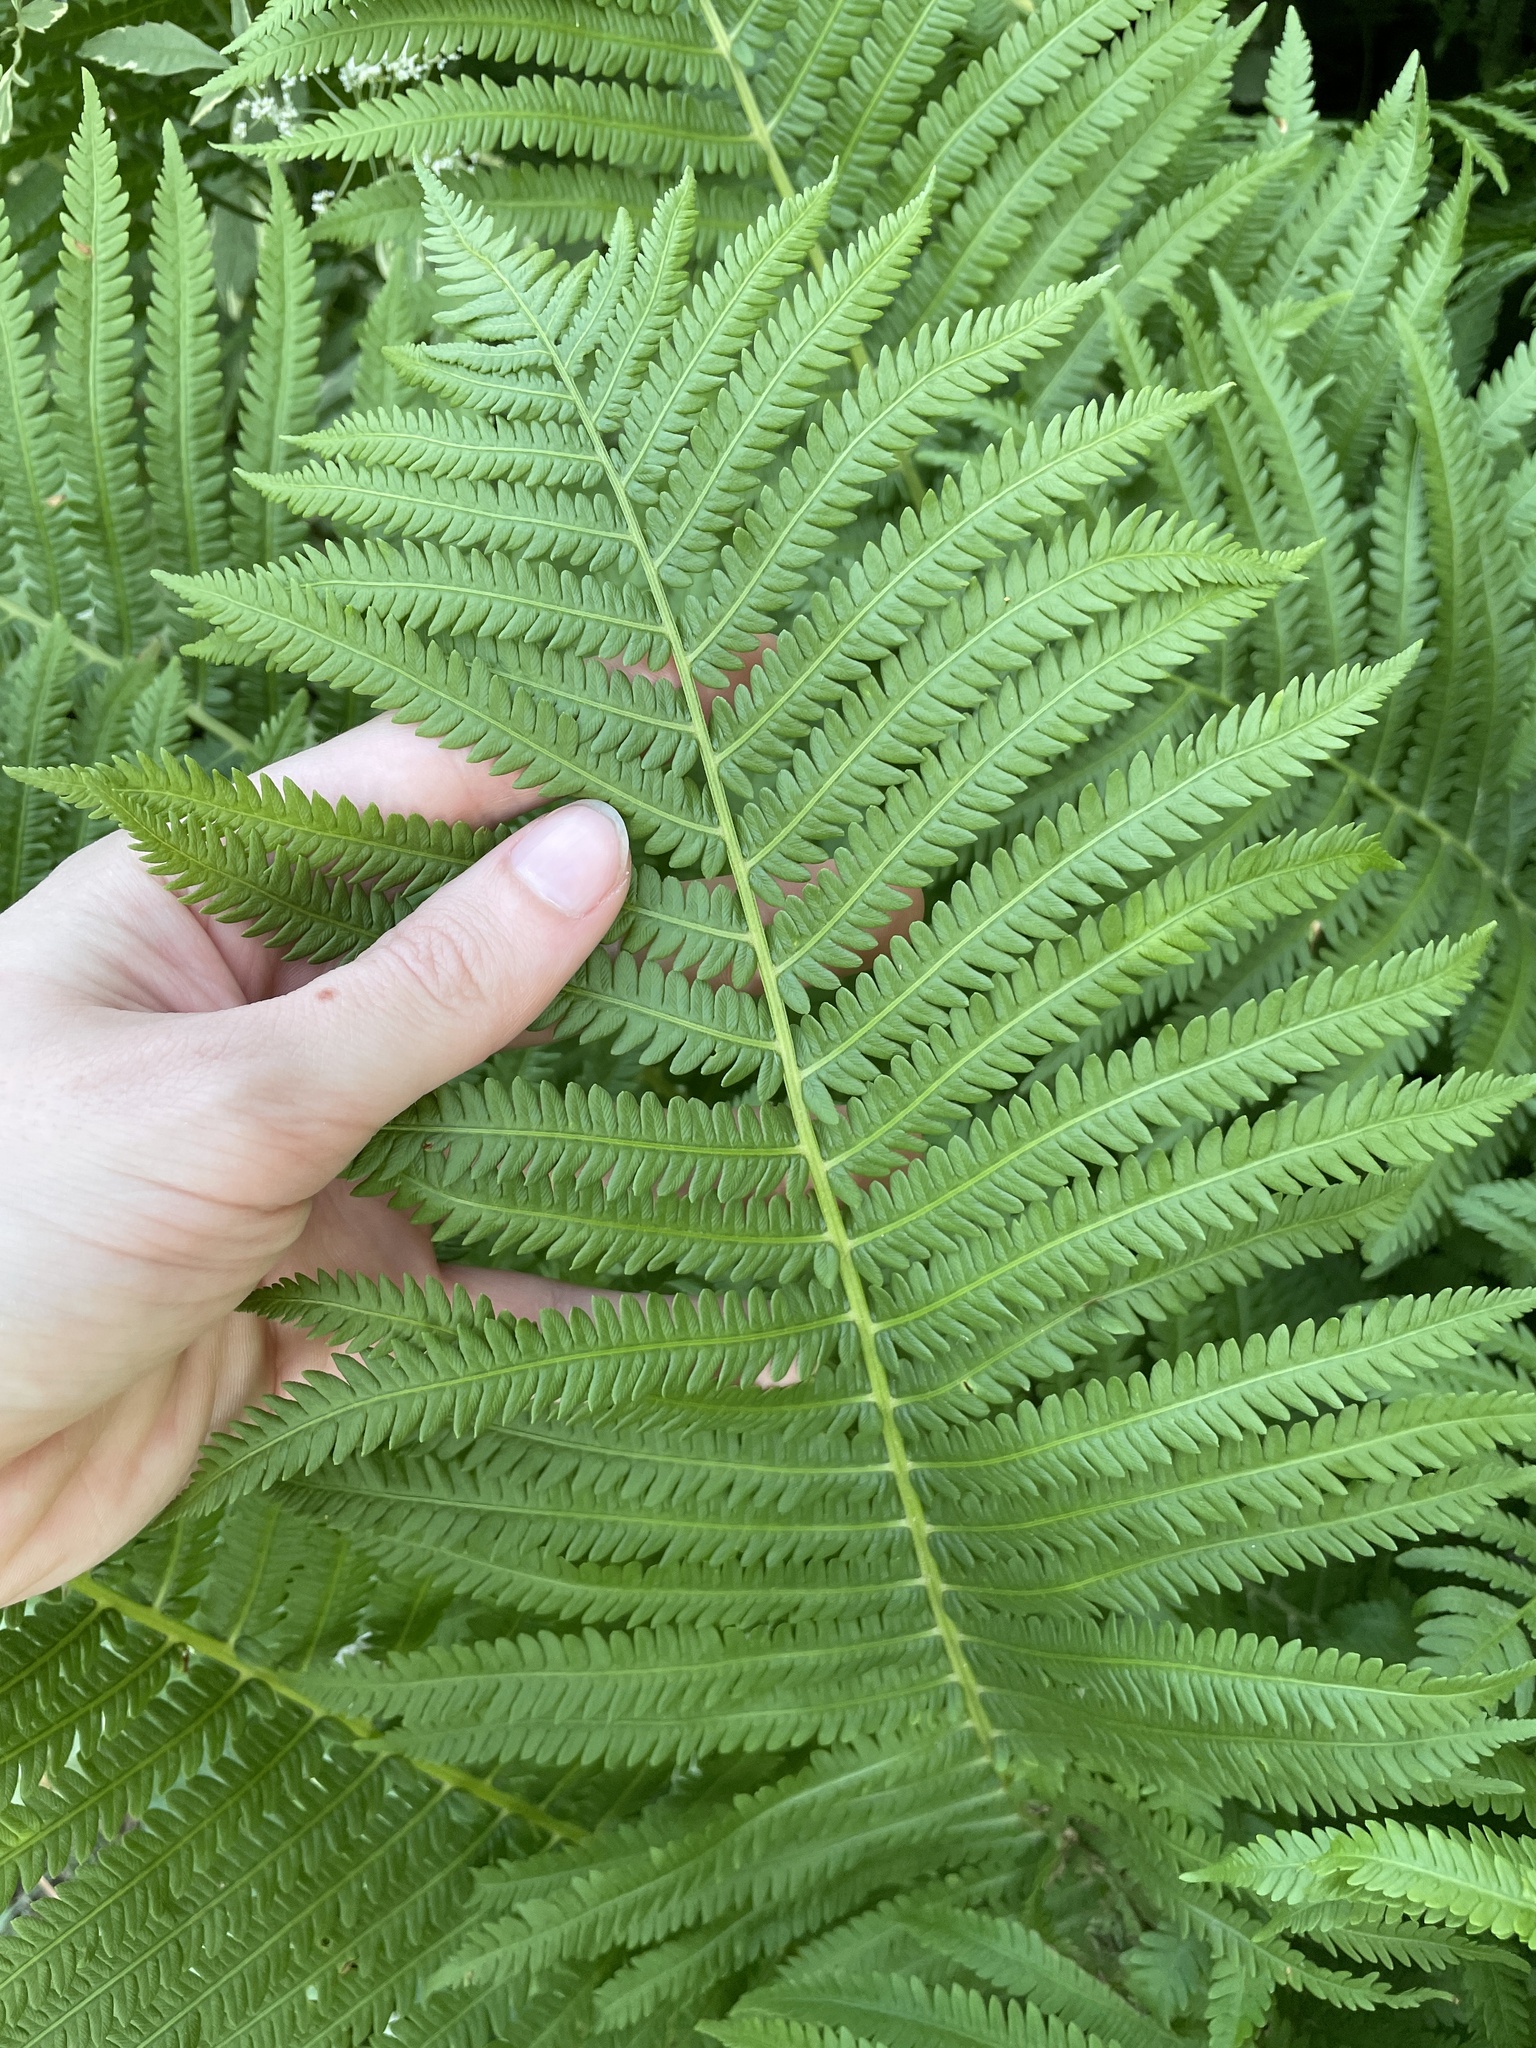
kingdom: Plantae
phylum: Tracheophyta
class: Polypodiopsida
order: Polypodiales
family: Onocleaceae
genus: Matteuccia
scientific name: Matteuccia struthiopteris
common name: Ostrich fern
